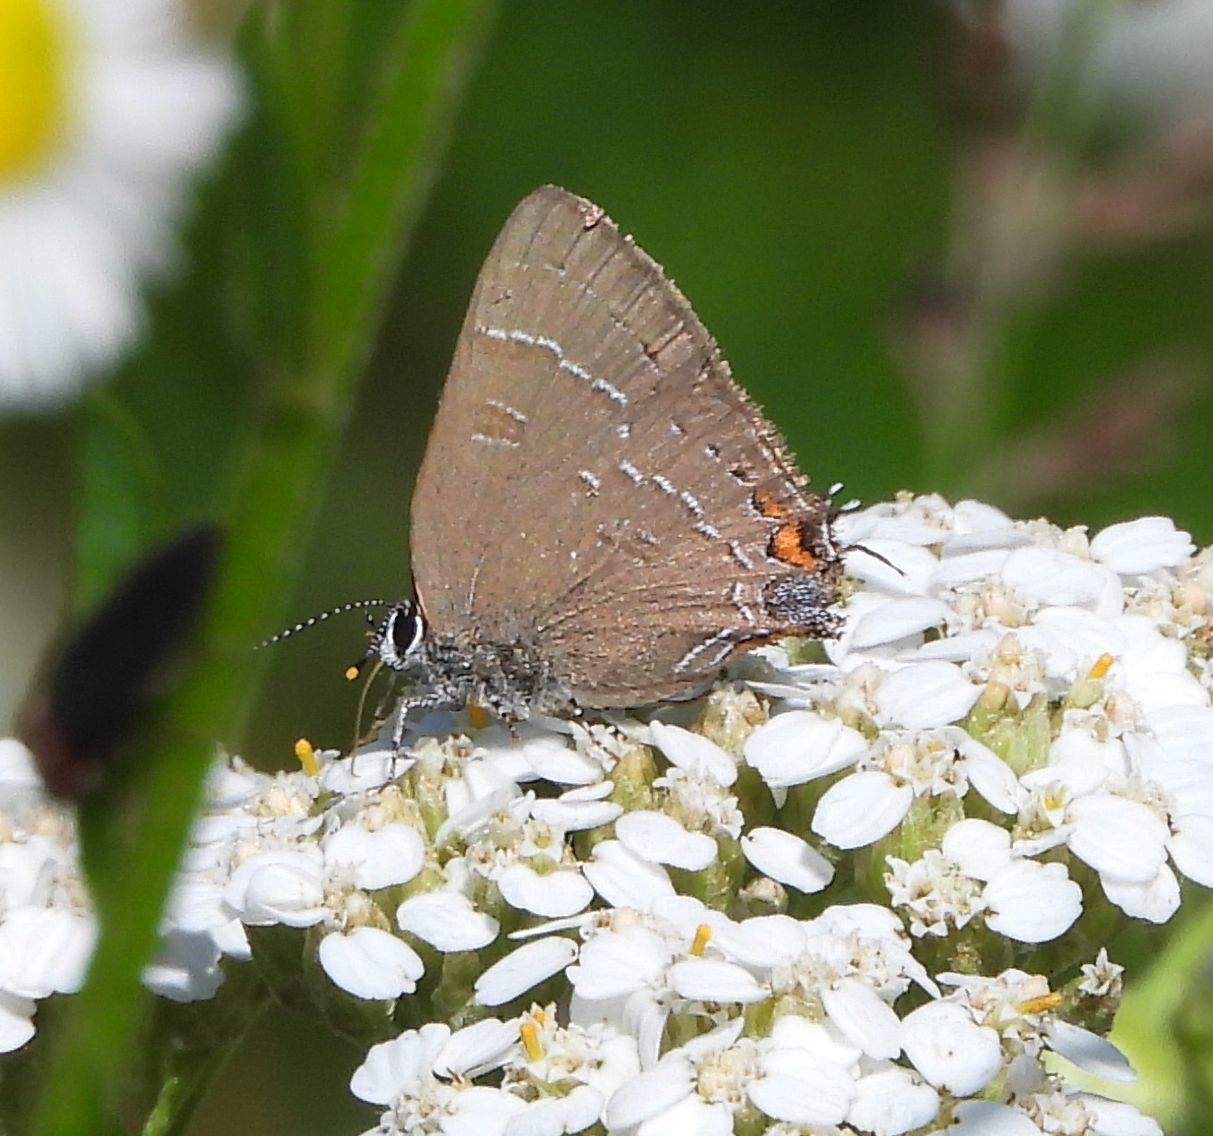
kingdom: Animalia
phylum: Arthropoda
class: Insecta
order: Lepidoptera
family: Lycaenidae
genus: Satyrium
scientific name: Satyrium calanus
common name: Banded hairstreak
